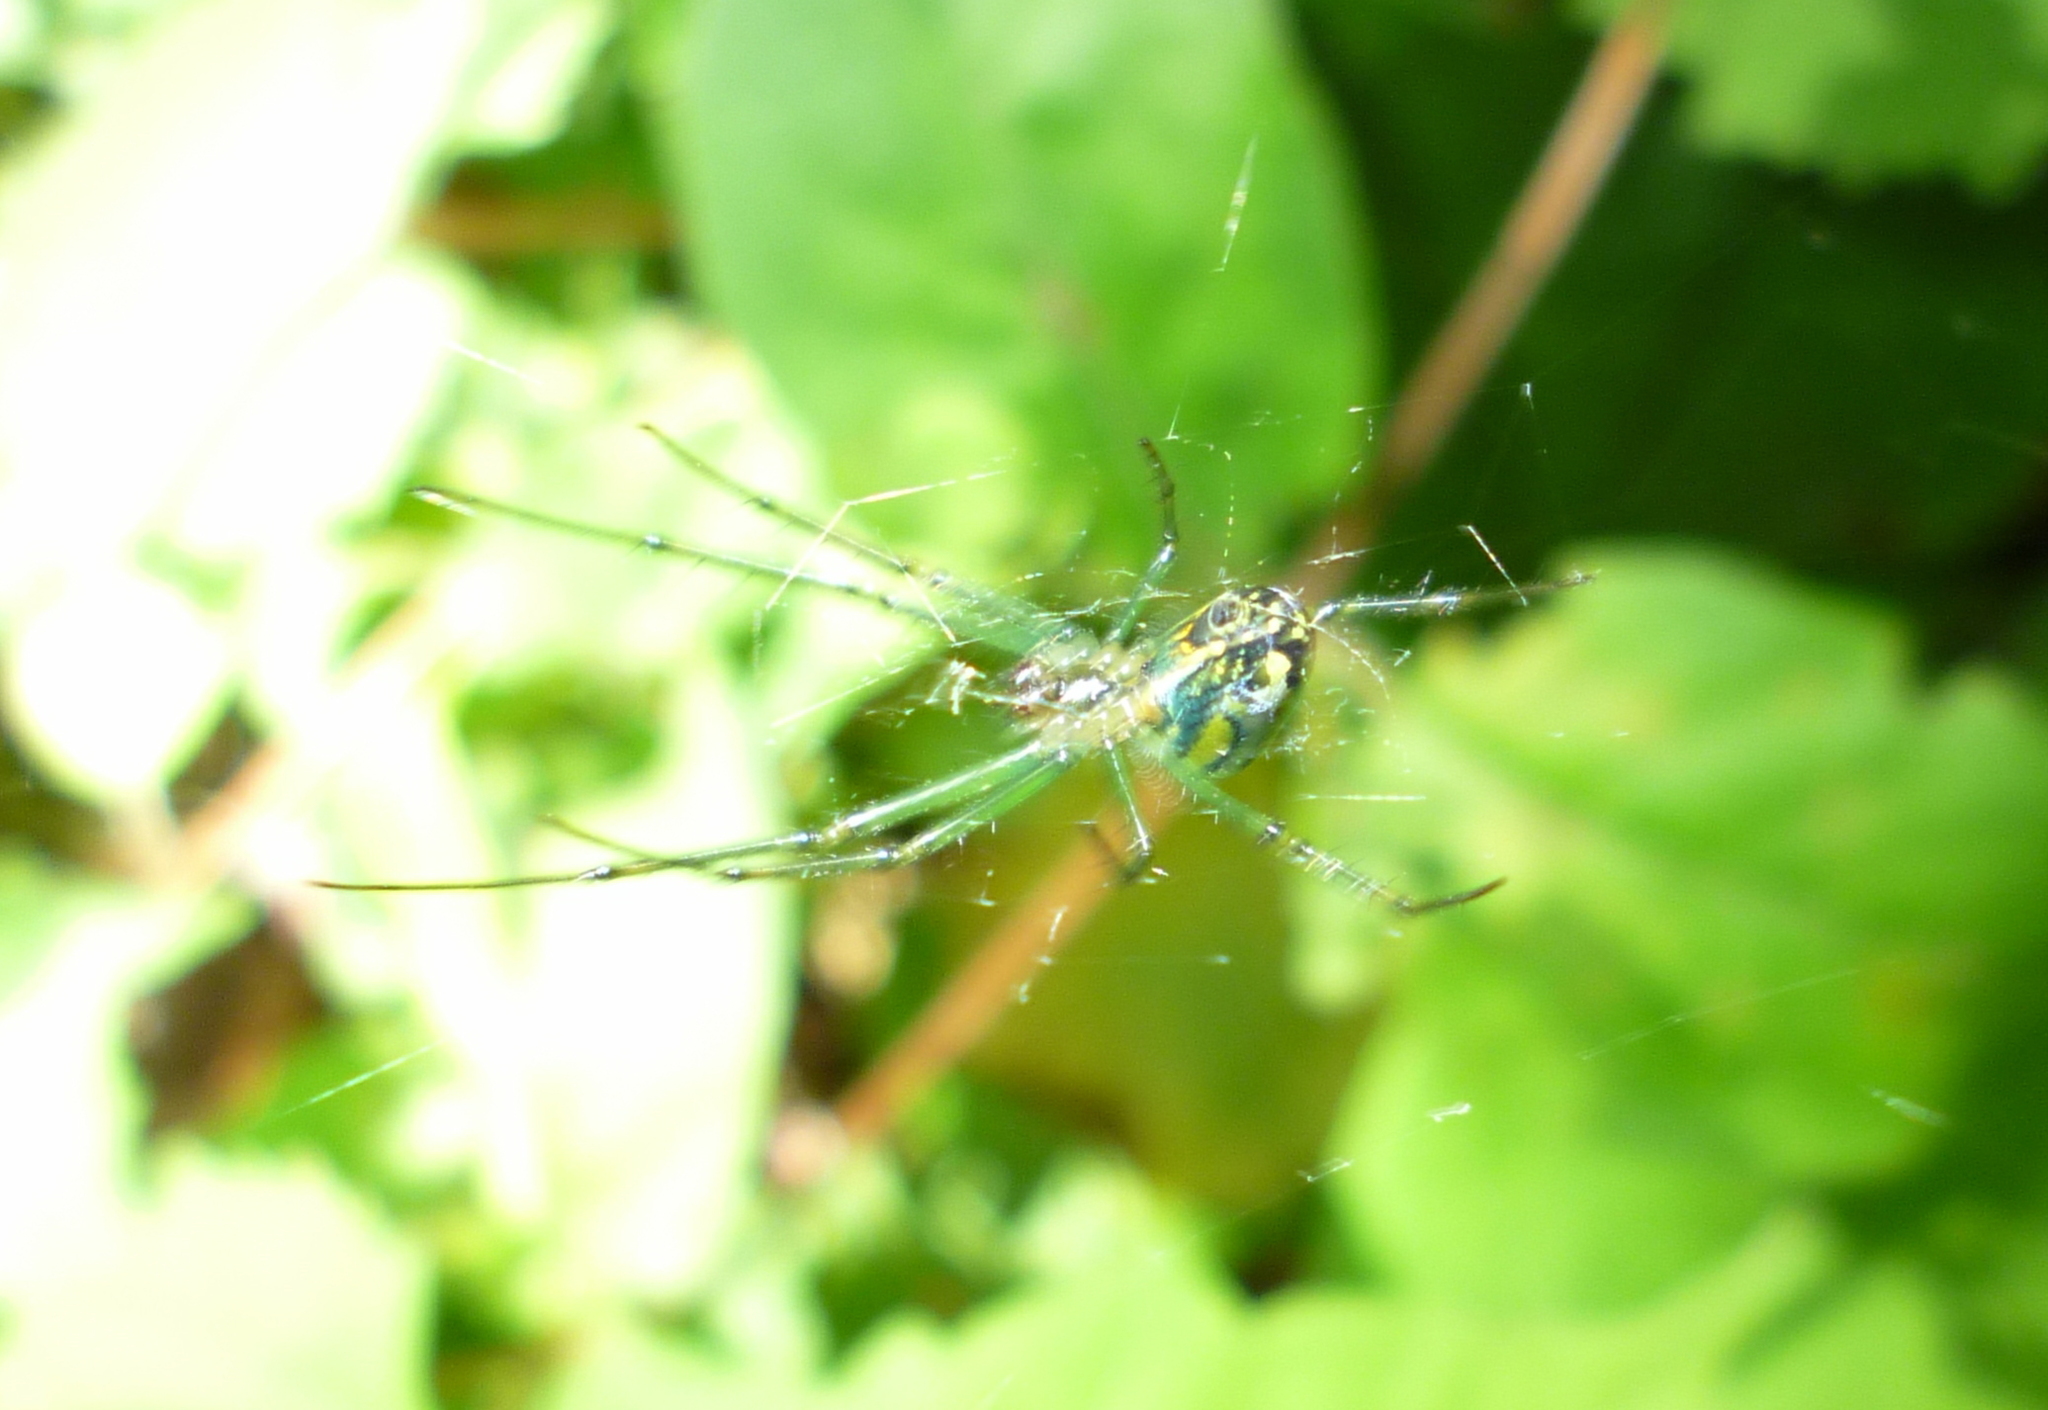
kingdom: Animalia
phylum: Arthropoda
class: Arachnida
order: Araneae
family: Tetragnathidae
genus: Leucauge
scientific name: Leucauge venusta
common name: Longjawed orb weavers
